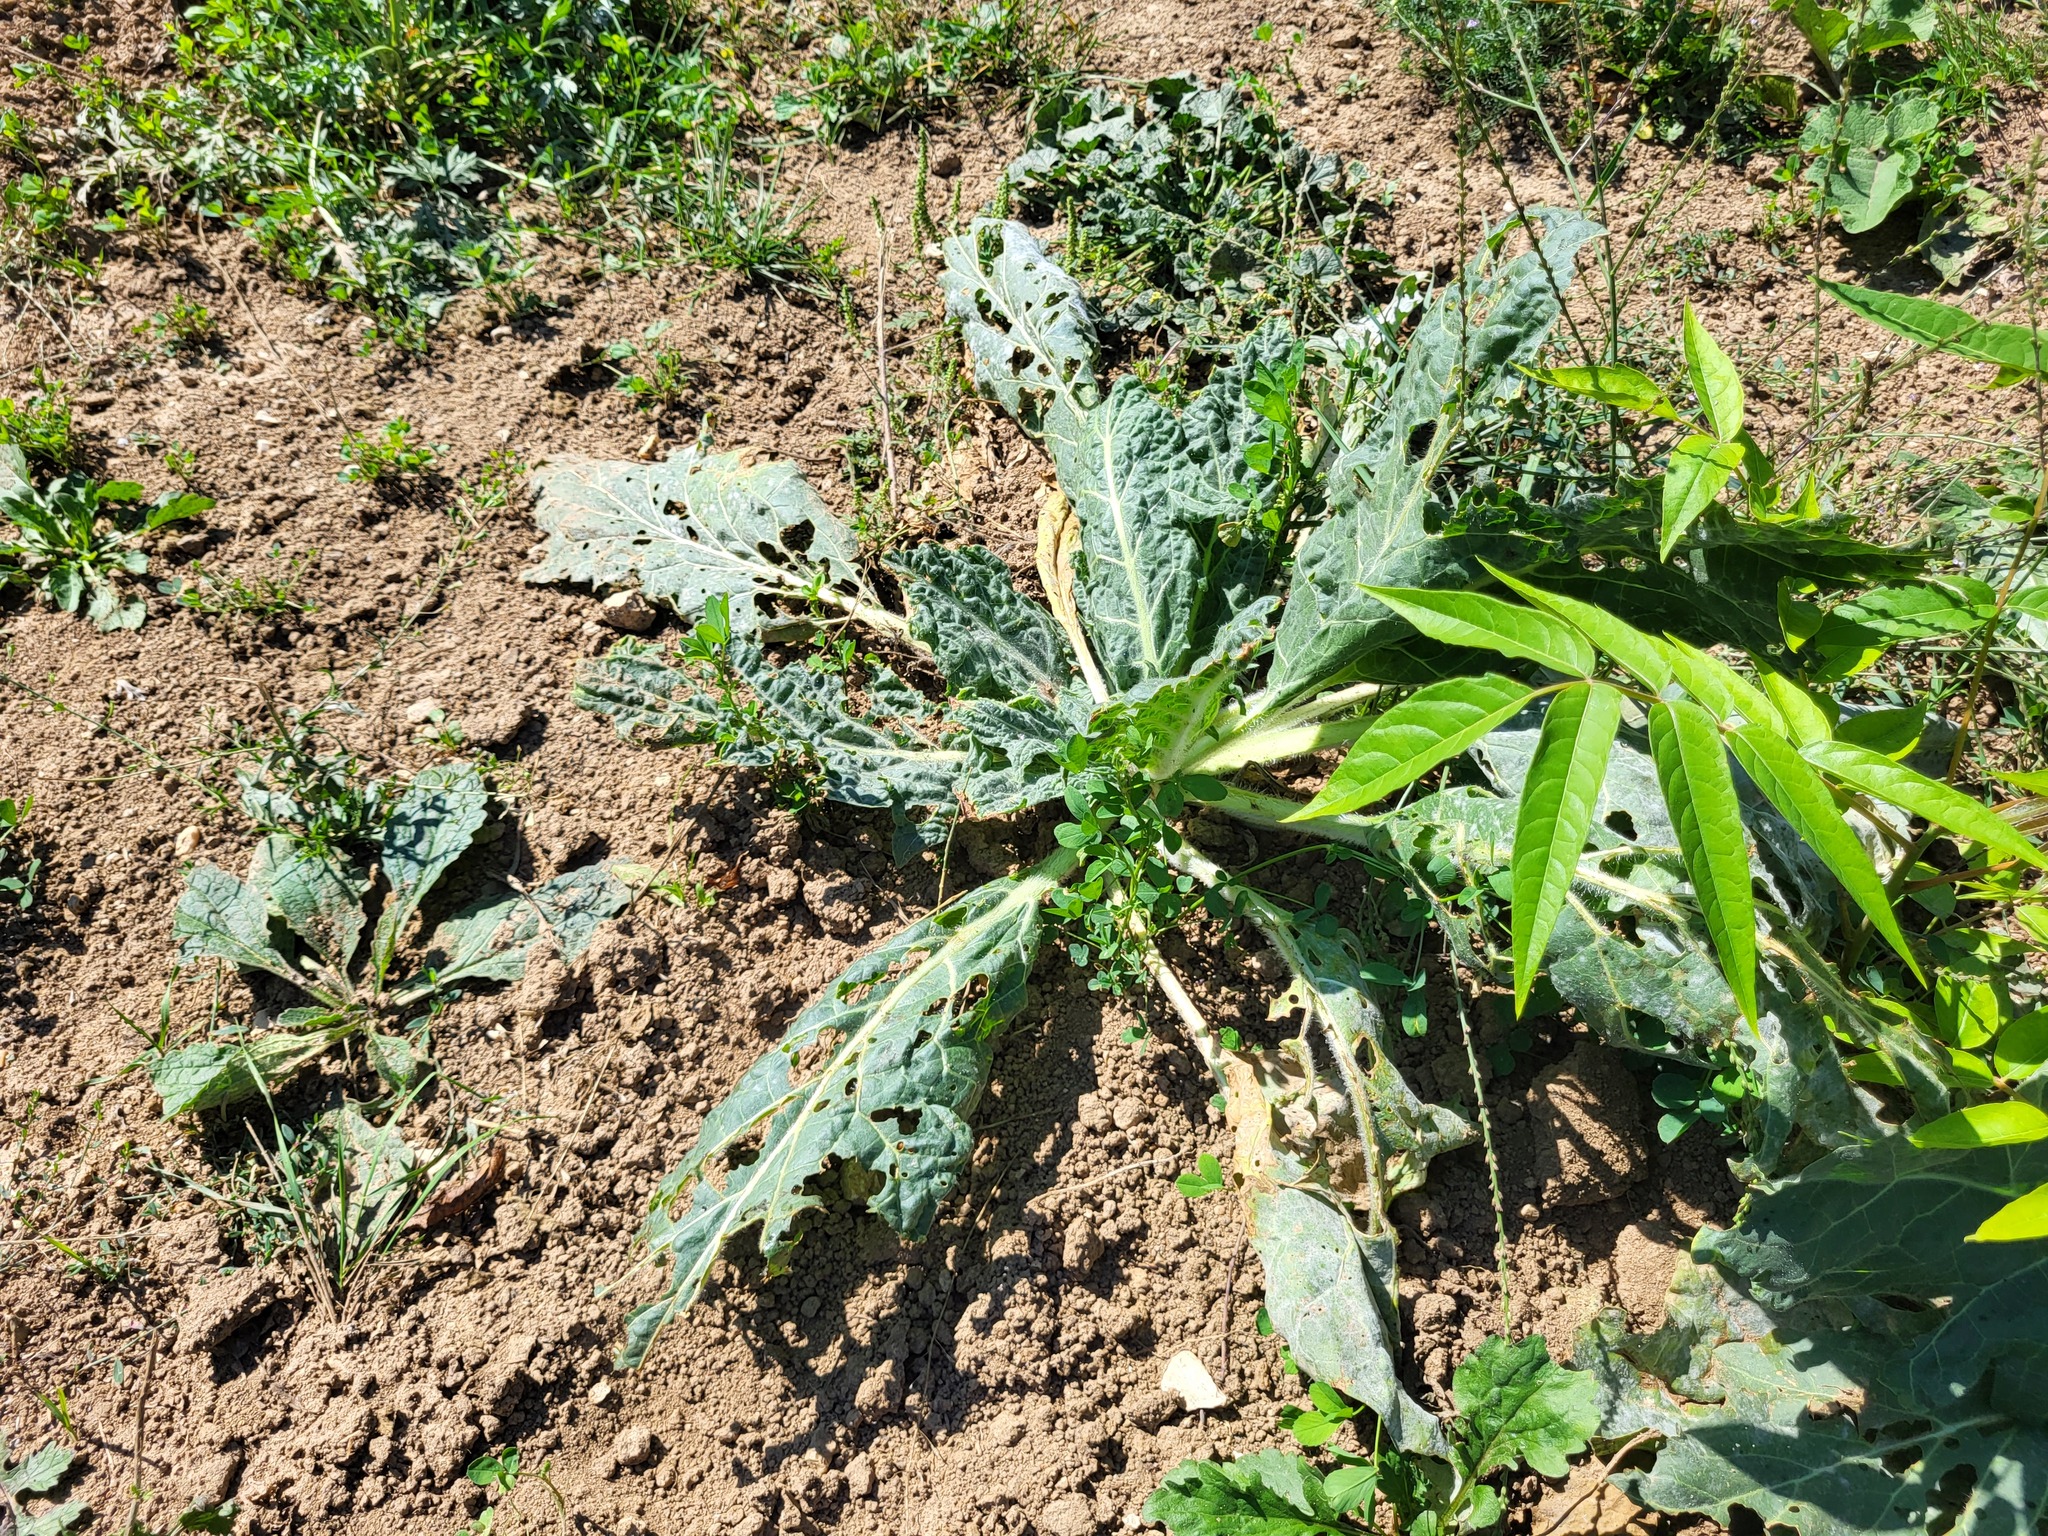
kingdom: Plantae
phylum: Tracheophyta
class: Magnoliopsida
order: Solanales
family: Solanaceae
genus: Hyoscyamus
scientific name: Hyoscyamus niger
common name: Henbane
